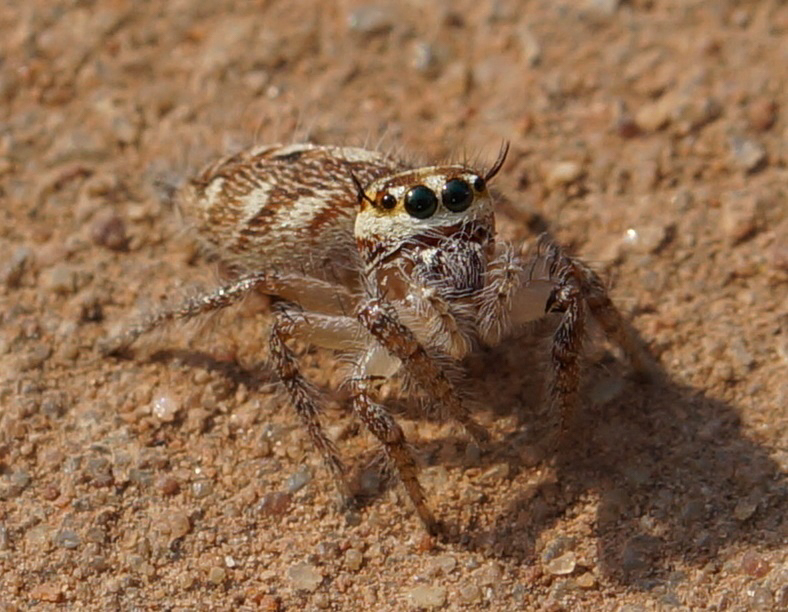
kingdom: Animalia
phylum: Arthropoda
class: Arachnida
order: Araneae
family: Salticidae
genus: Hyllus
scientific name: Hyllus semicupreus
